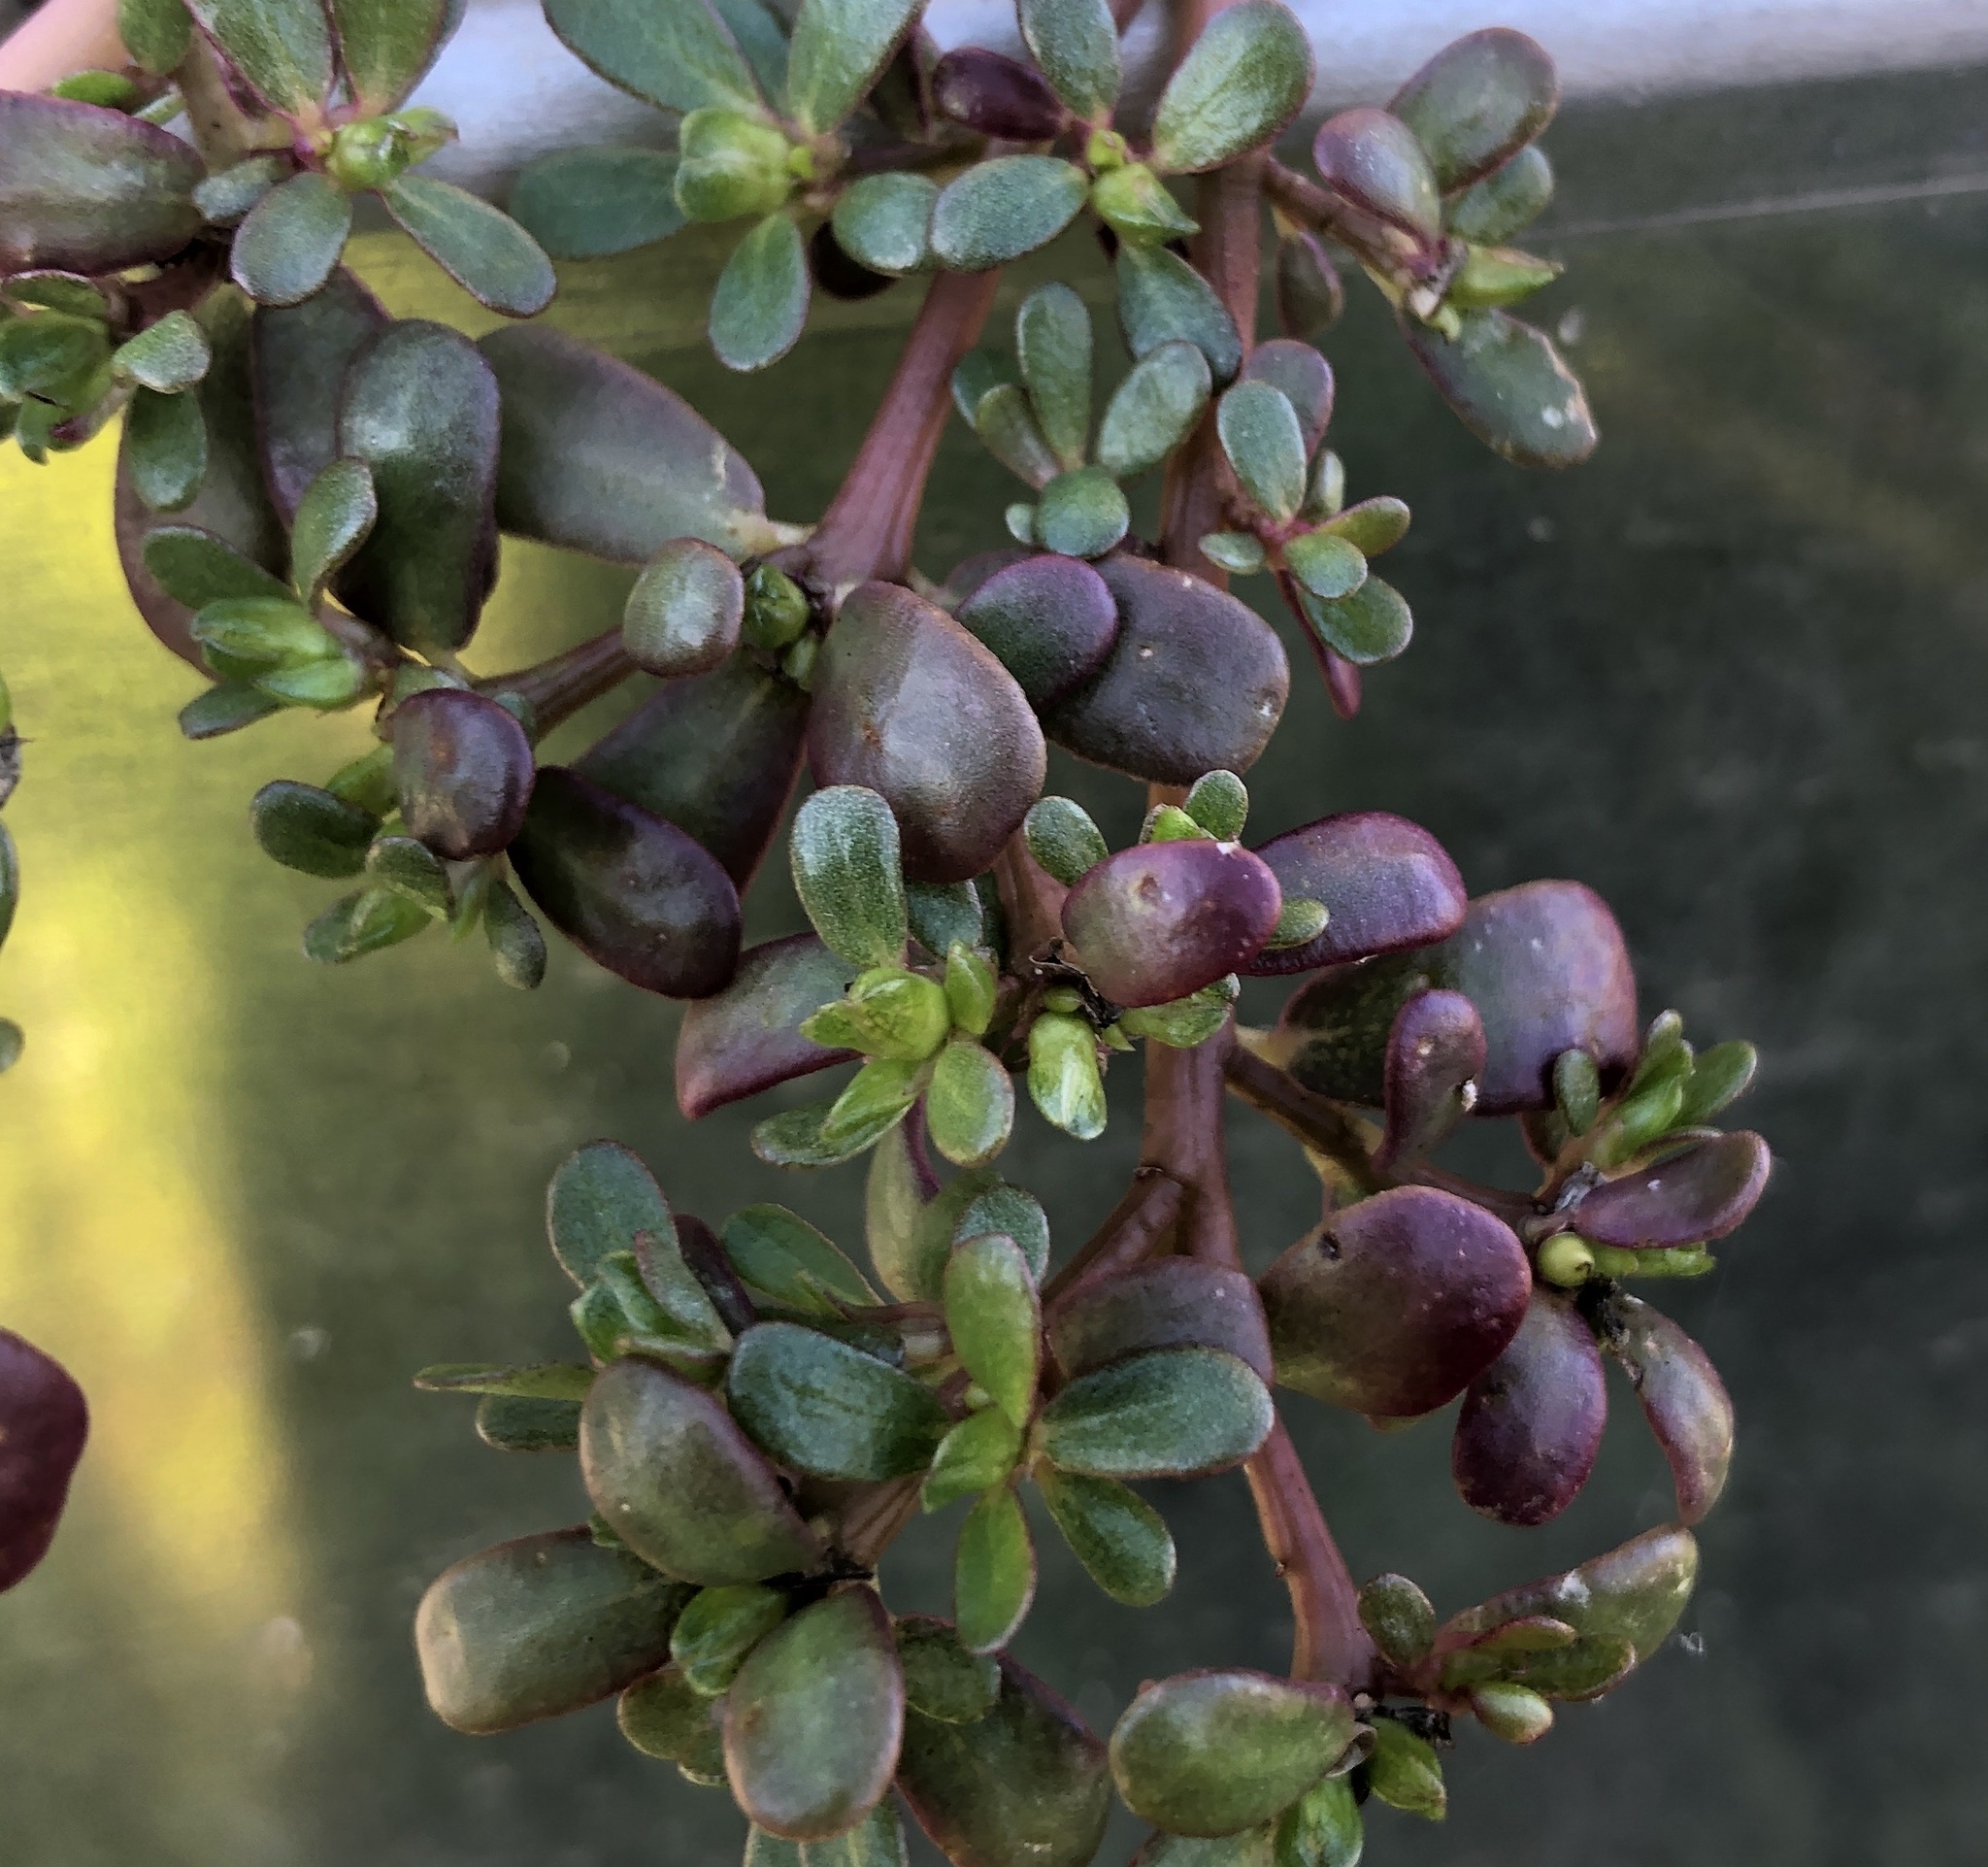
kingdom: Plantae
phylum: Tracheophyta
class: Magnoliopsida
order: Caryophyllales
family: Portulacaceae
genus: Portulaca
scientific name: Portulaca oleracea
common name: Common purslane
